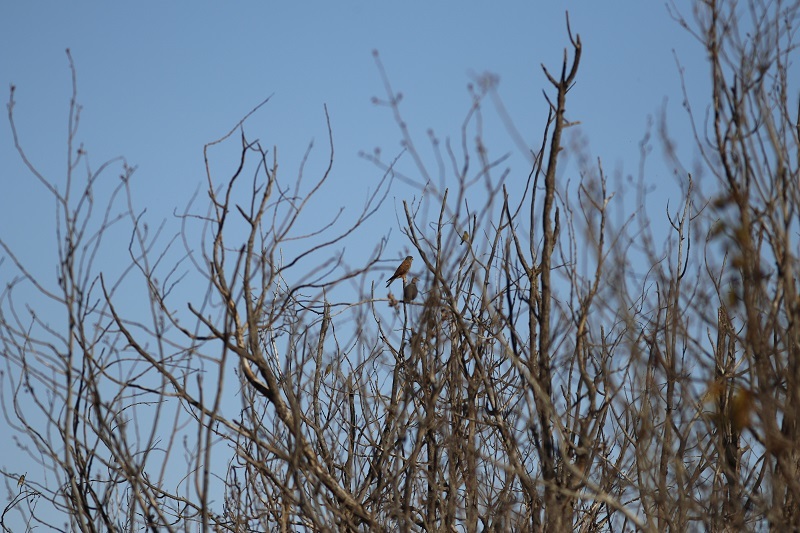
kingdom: Animalia
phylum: Chordata
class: Aves
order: Falconiformes
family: Falconidae
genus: Falco
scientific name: Falco rupicolus
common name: Rock kestrel
